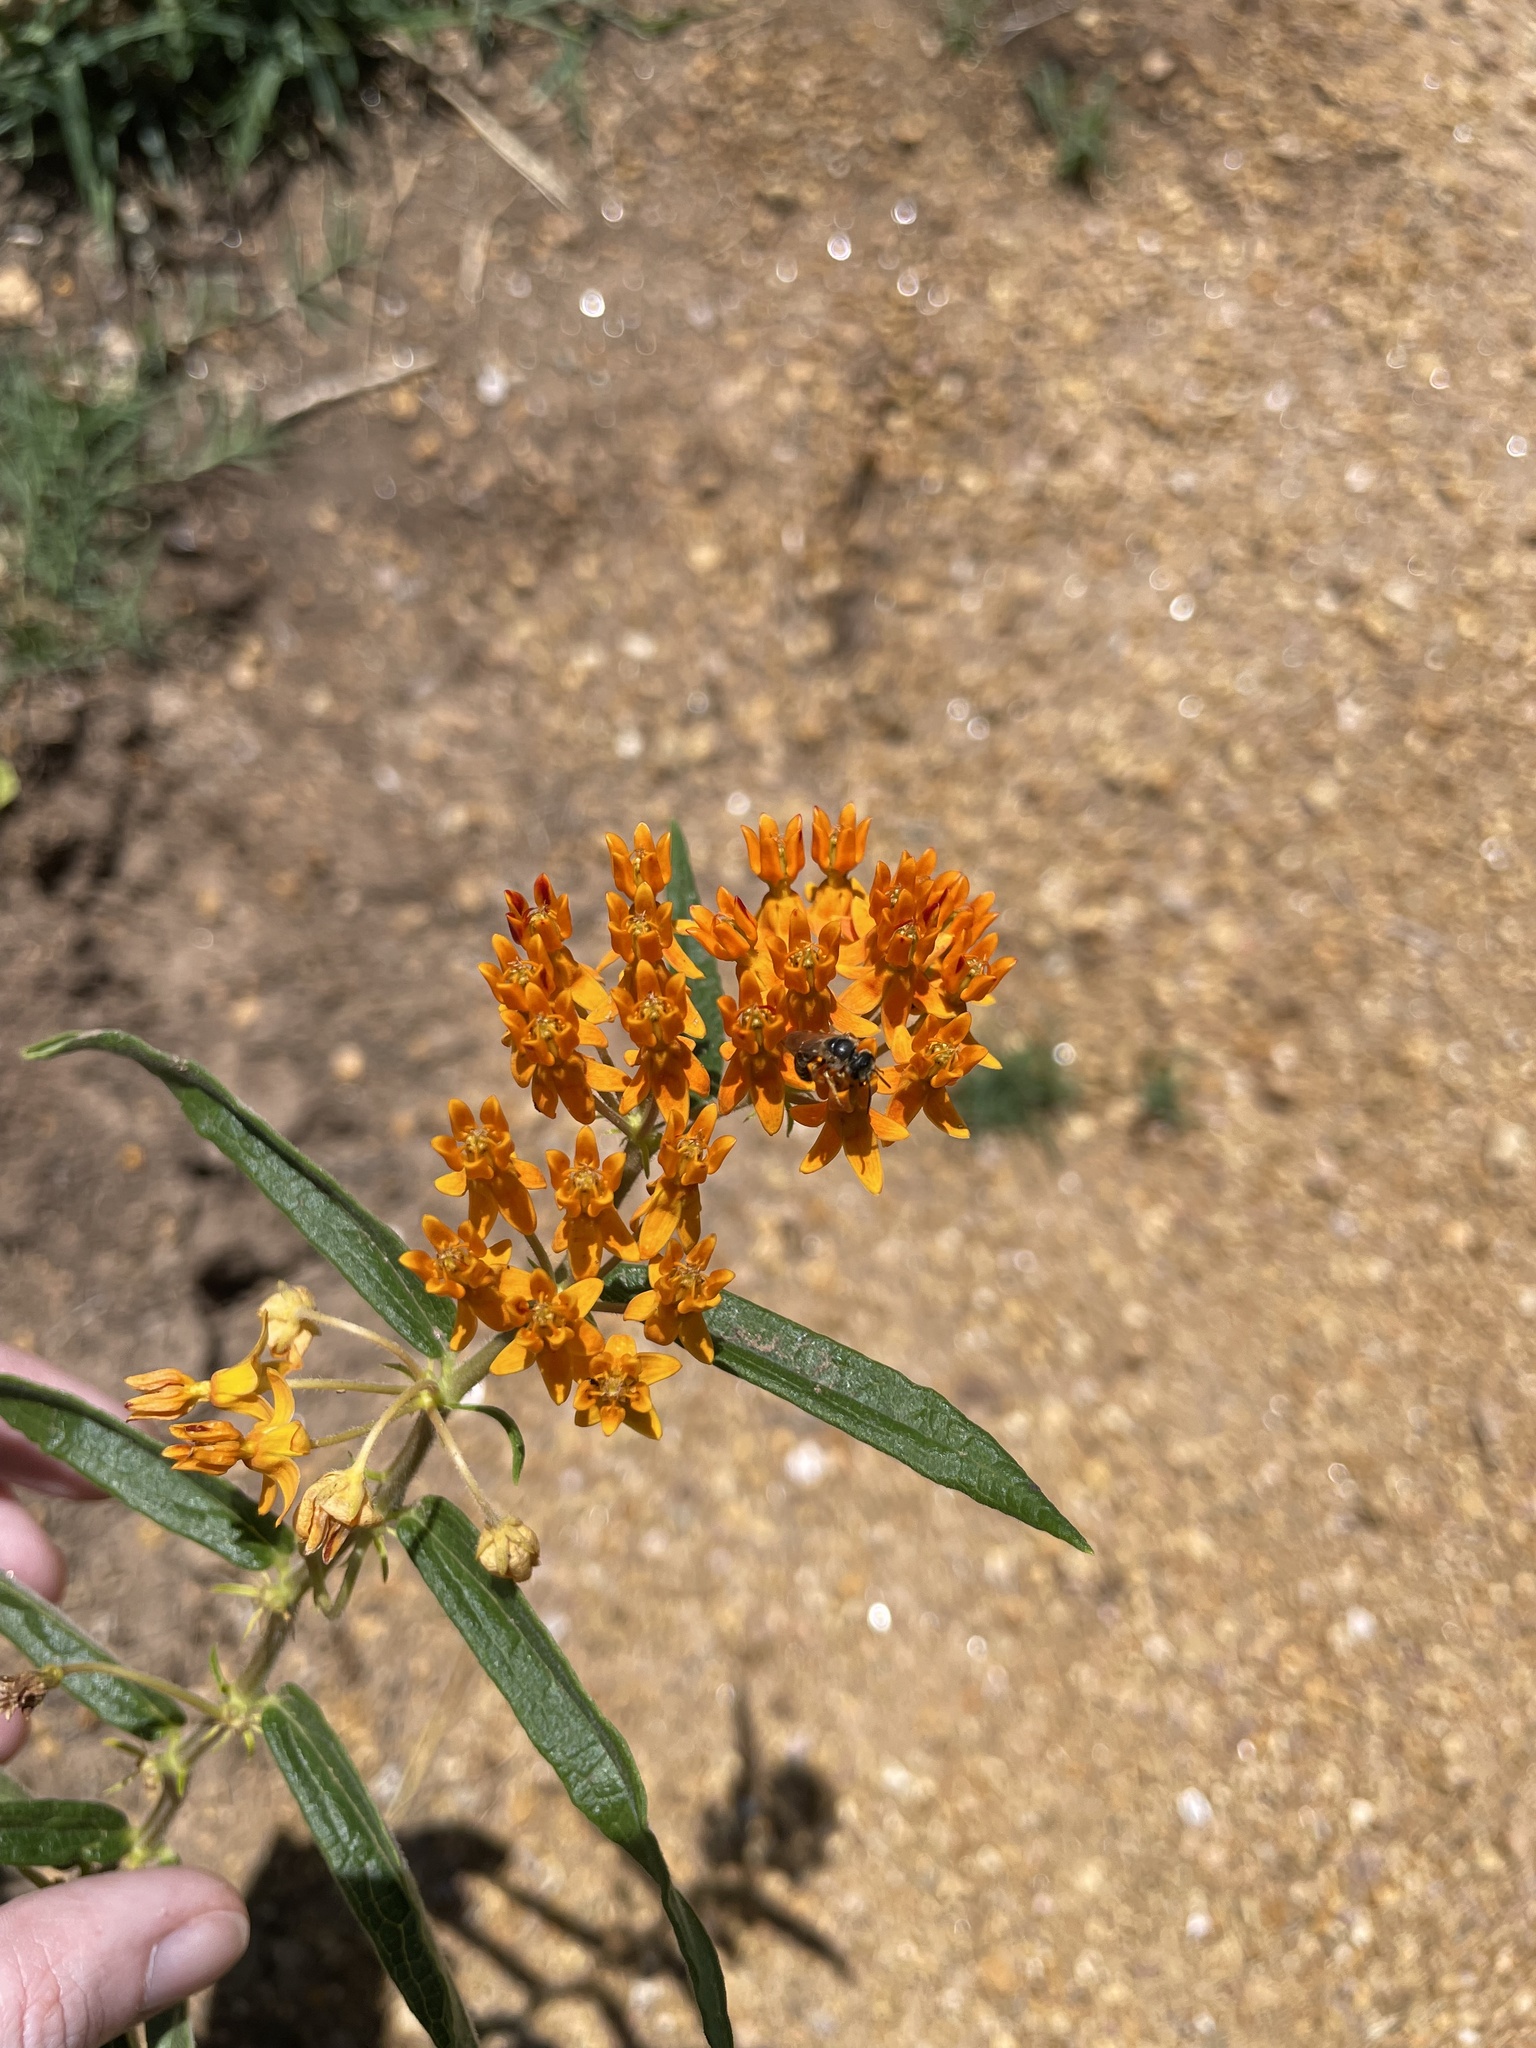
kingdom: Animalia
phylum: Arthropoda
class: Insecta
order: Hymenoptera
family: Halictidae
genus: Halictus
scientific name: Halictus ligatus
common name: Ligated furrow bee
